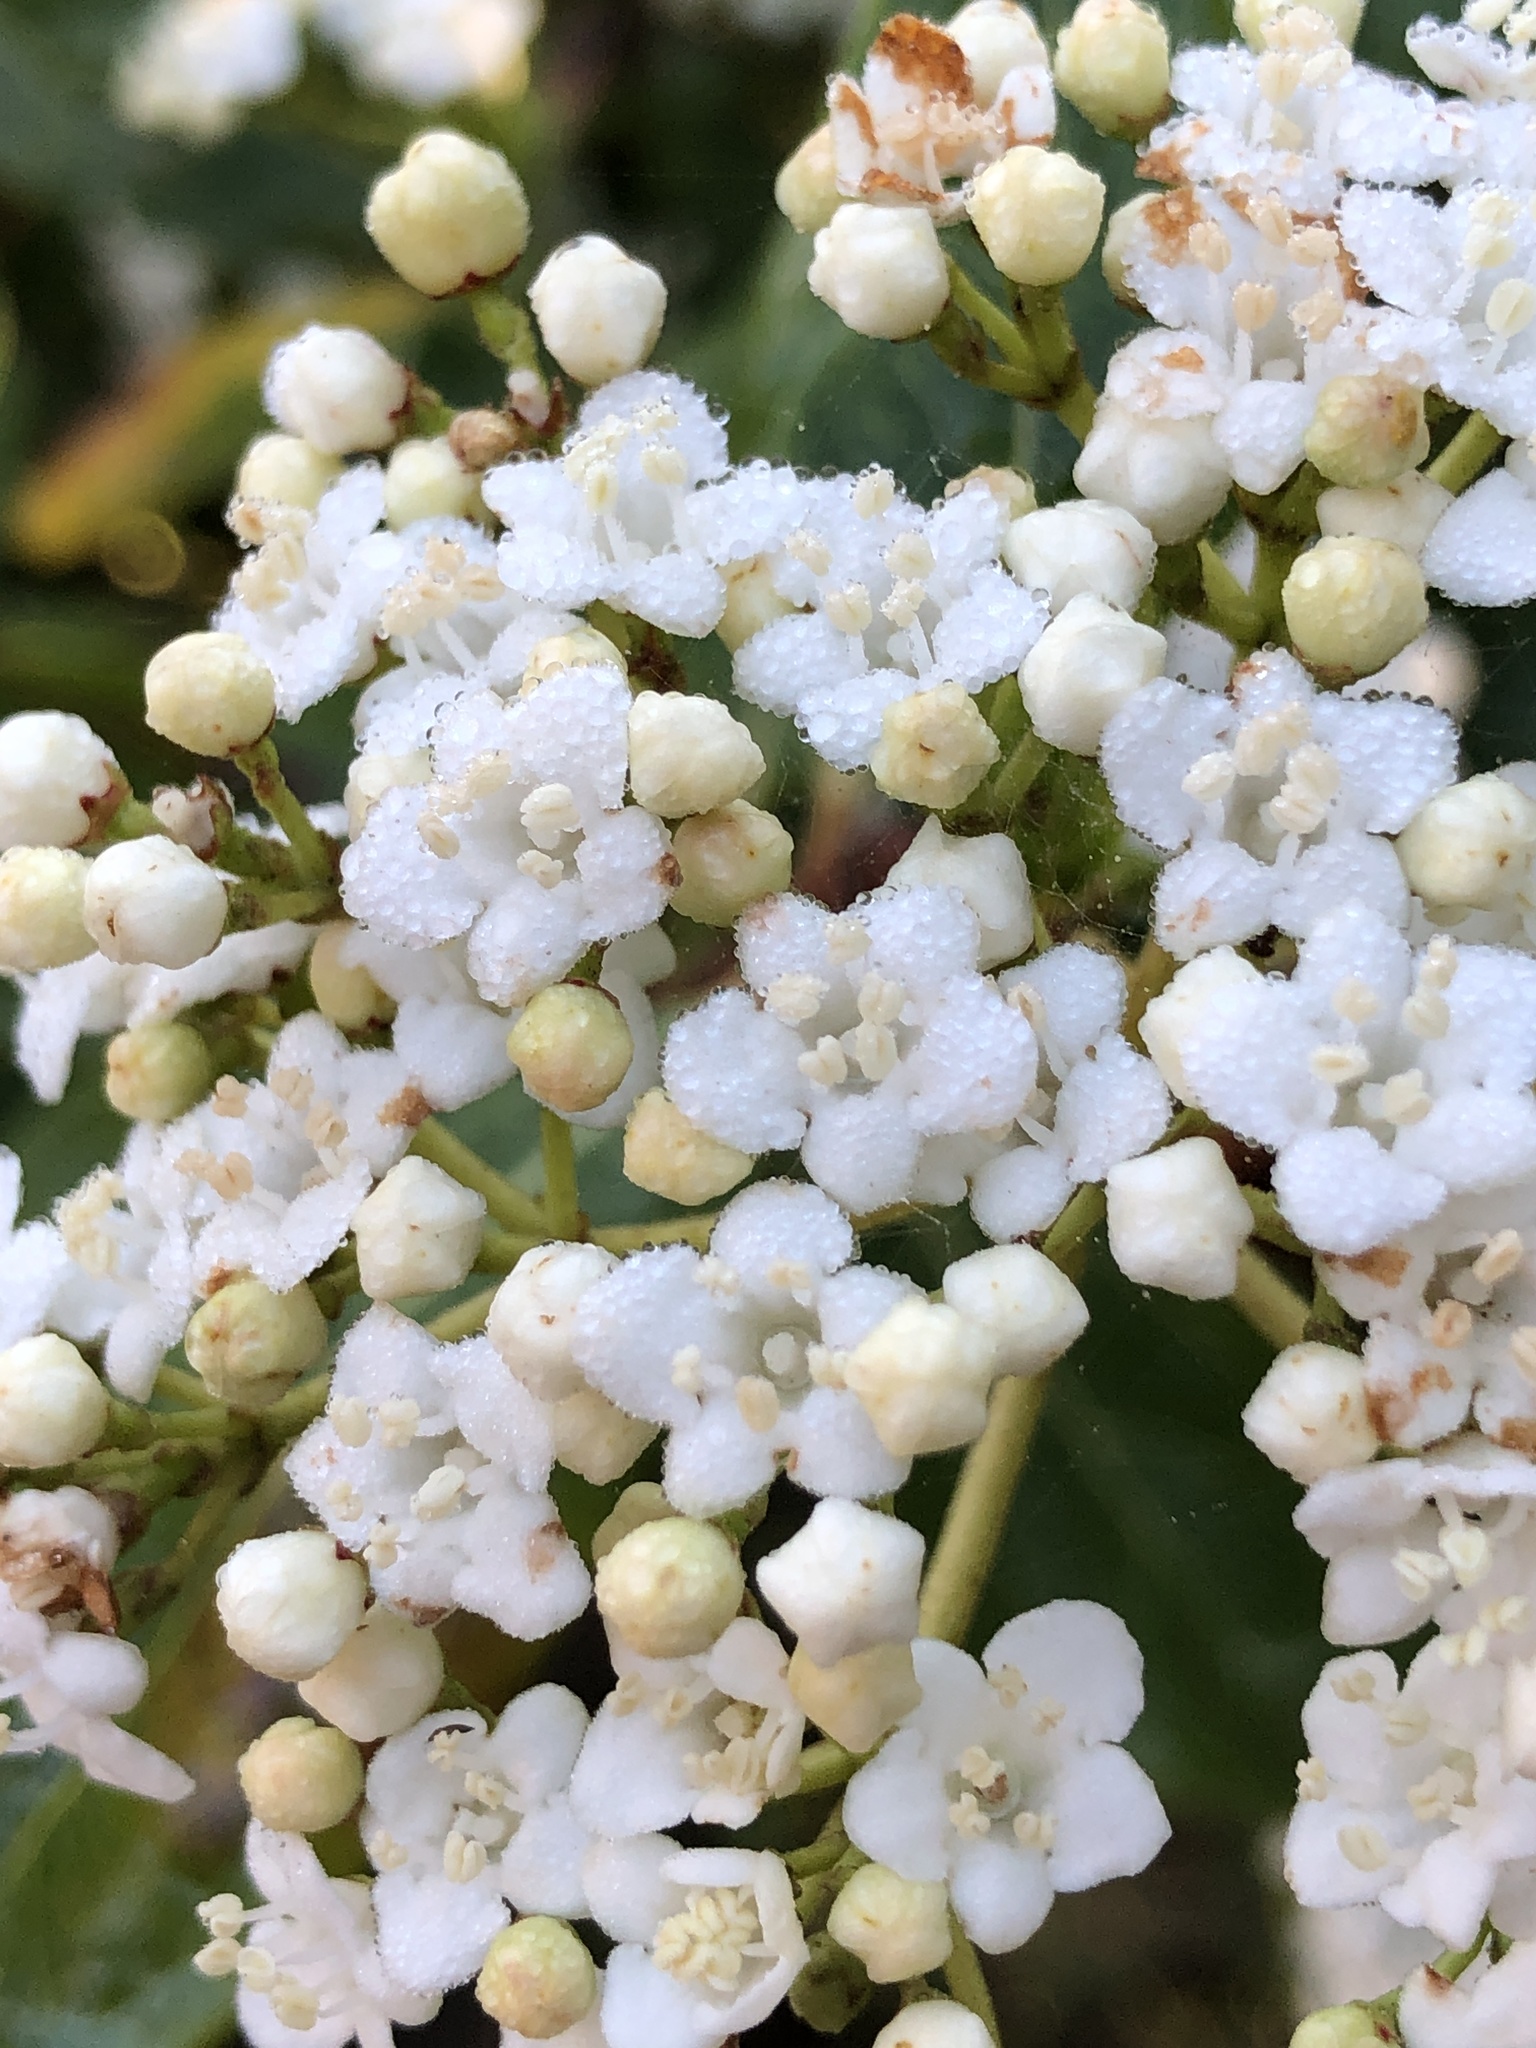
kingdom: Plantae
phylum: Tracheophyta
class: Magnoliopsida
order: Dipsacales
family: Viburnaceae
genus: Viburnum
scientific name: Viburnum tinus
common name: Laurustinus
